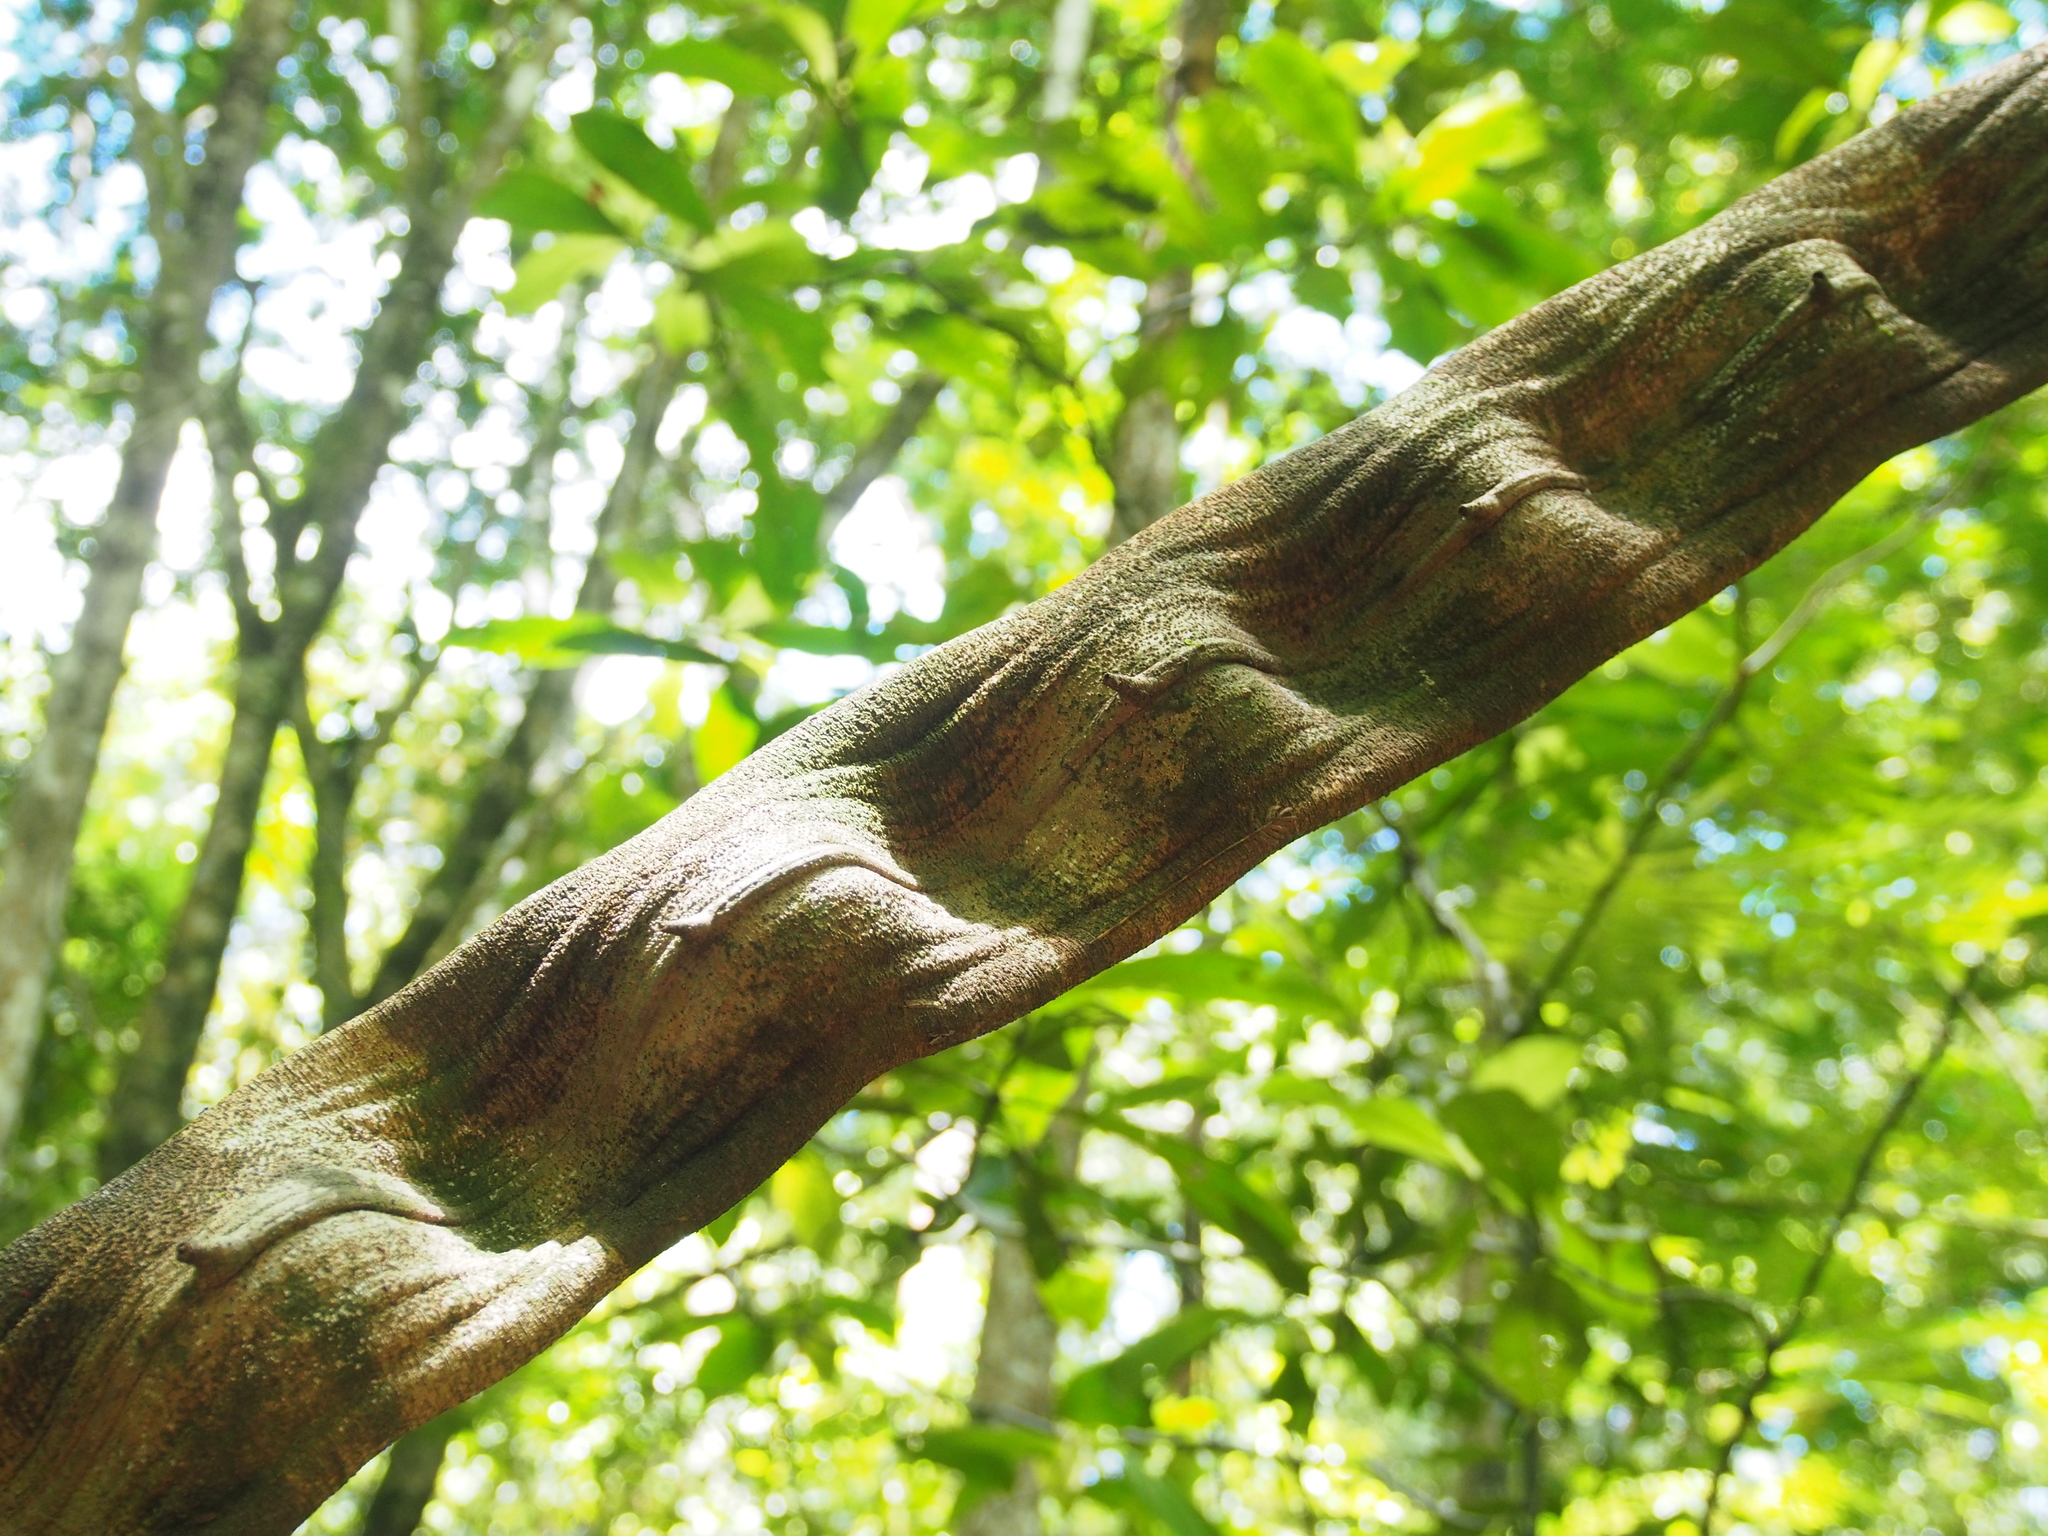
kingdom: Plantae
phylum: Tracheophyta
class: Magnoliopsida
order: Fabales
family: Fabaceae
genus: Schnella
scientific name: Schnella guianensis
